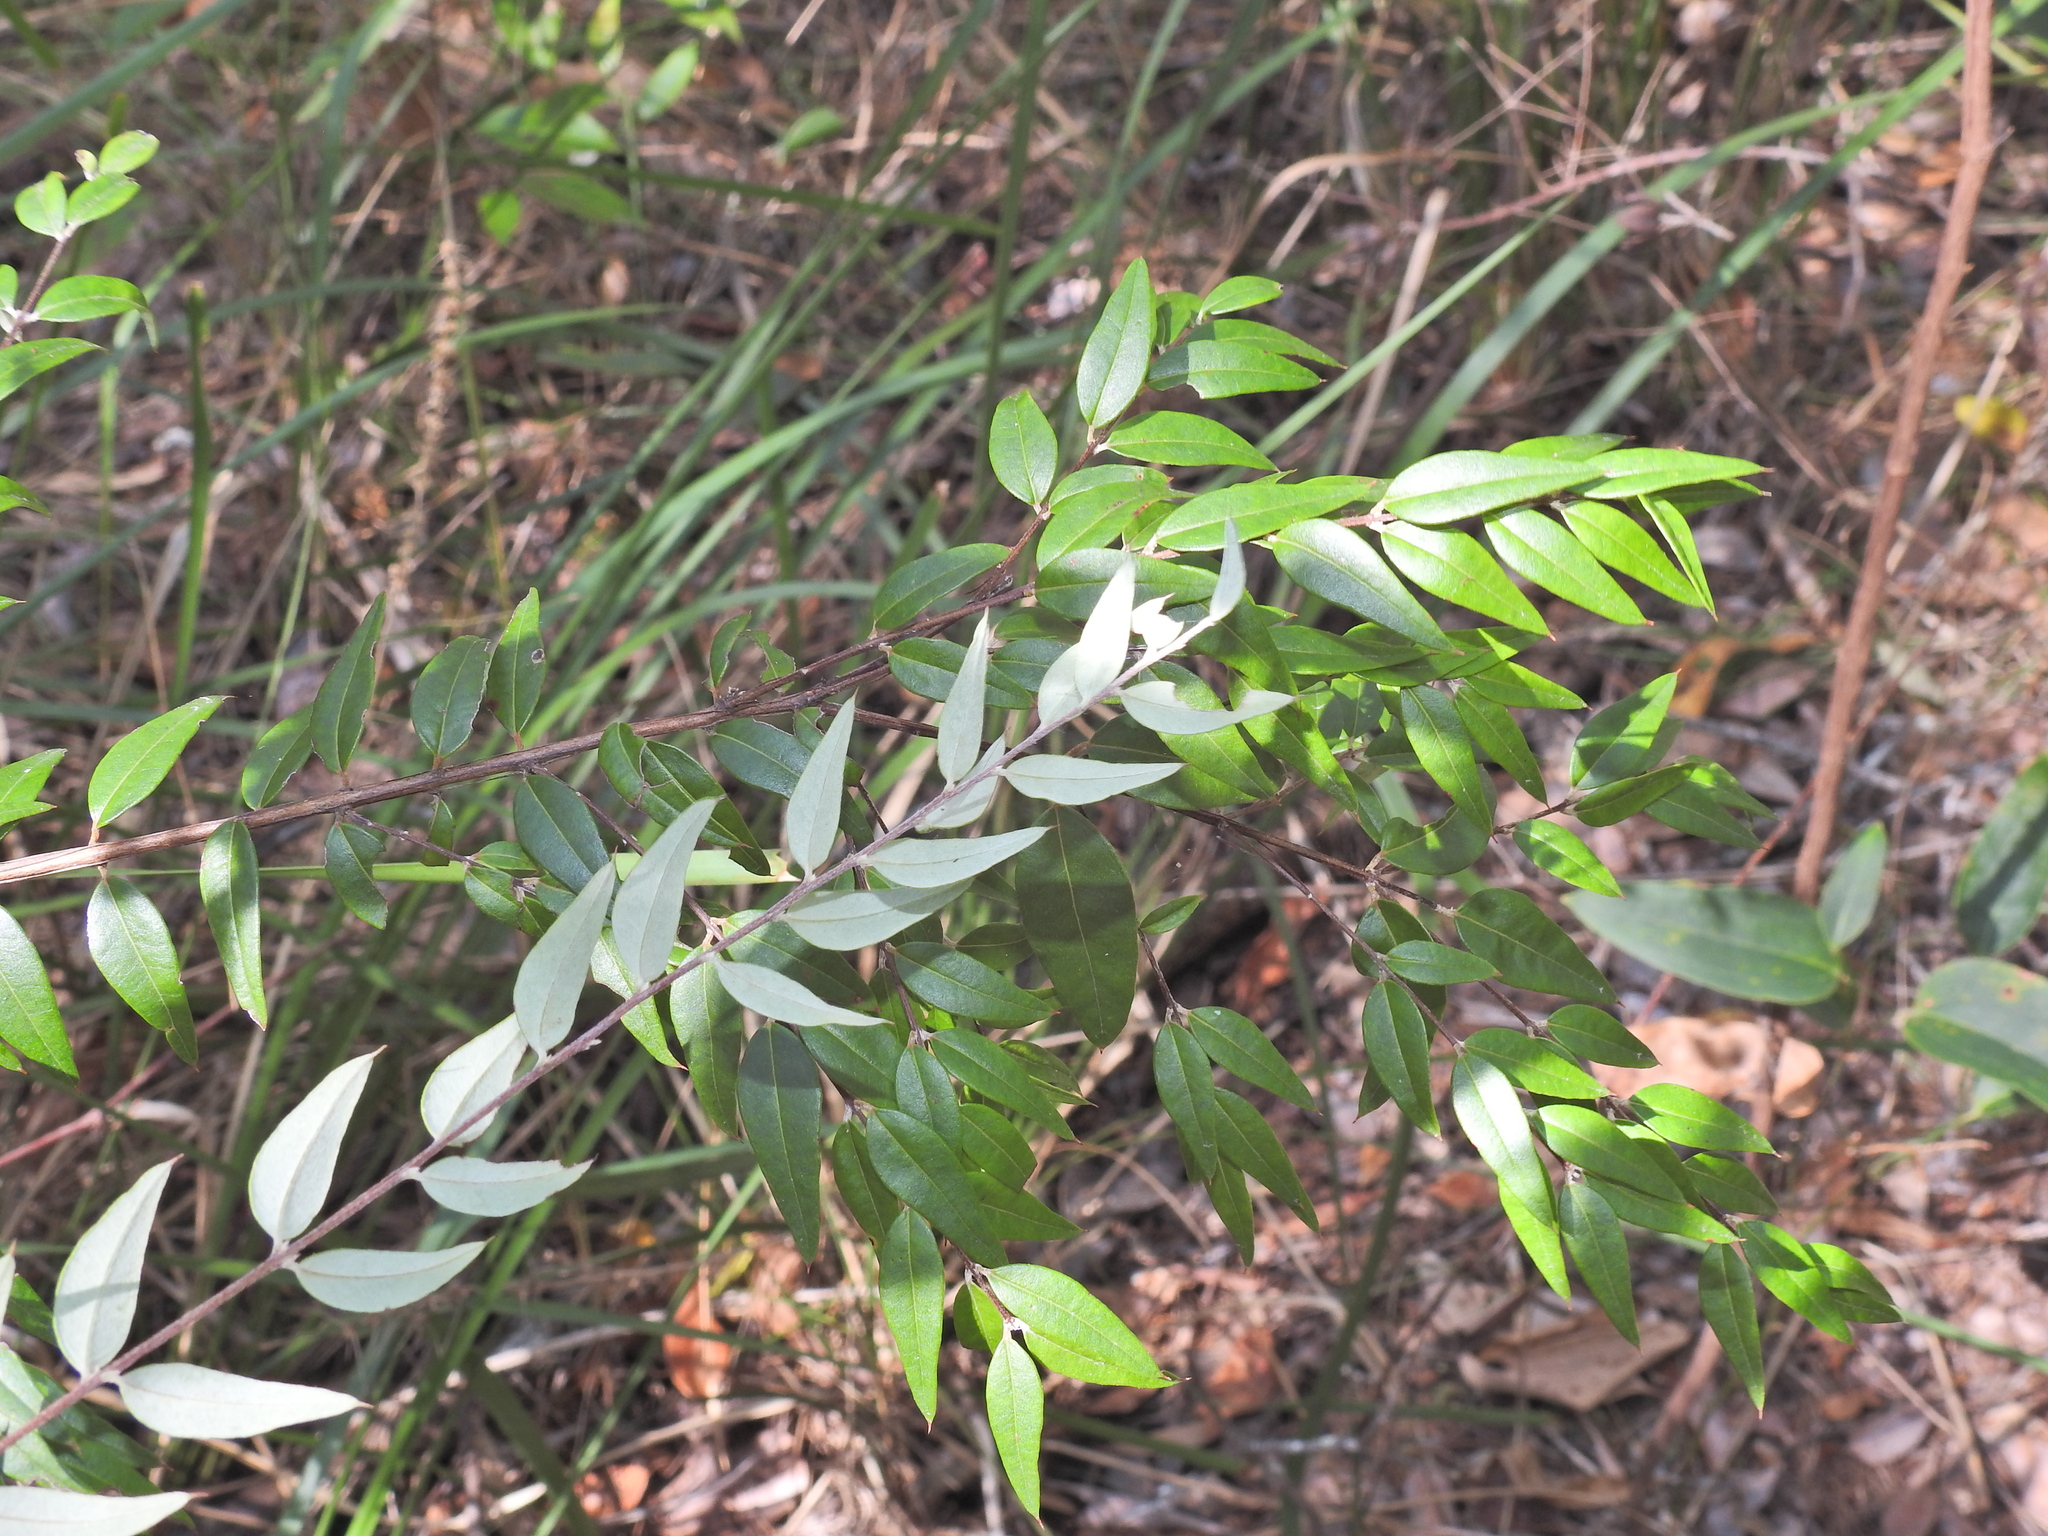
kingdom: Plantae
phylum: Tracheophyta
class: Magnoliopsida
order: Myrtales
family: Myrtaceae
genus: Austromyrtus
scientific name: Austromyrtus dulcis
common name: Migden-berry
